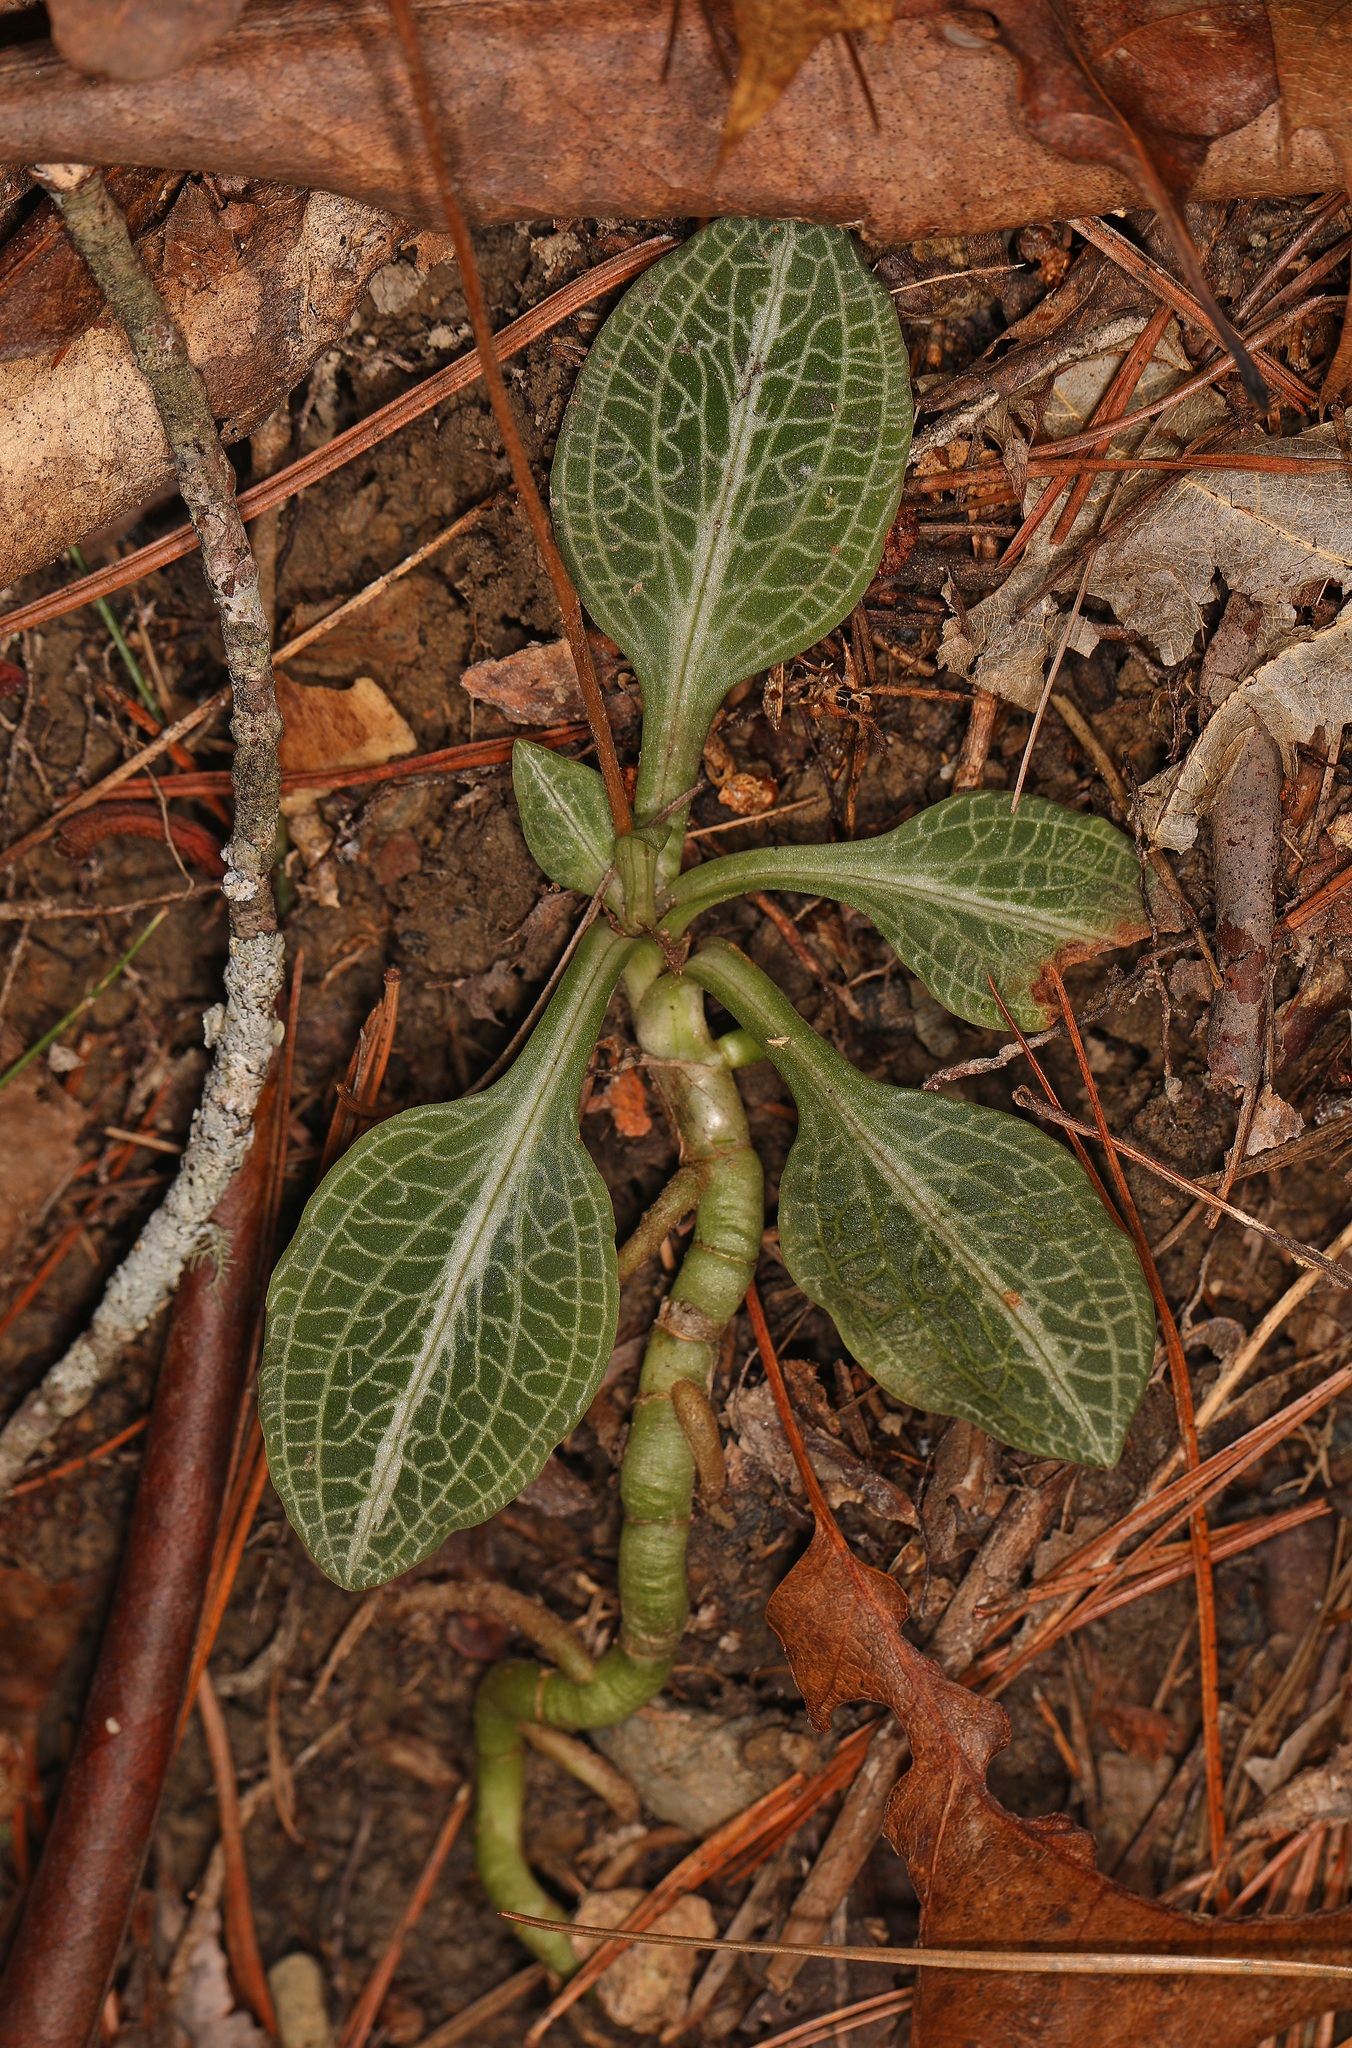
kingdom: Plantae
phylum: Tracheophyta
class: Liliopsida
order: Asparagales
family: Orchidaceae
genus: Goodyera
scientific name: Goodyera pubescens
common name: Downy rattlesnake-plantain
